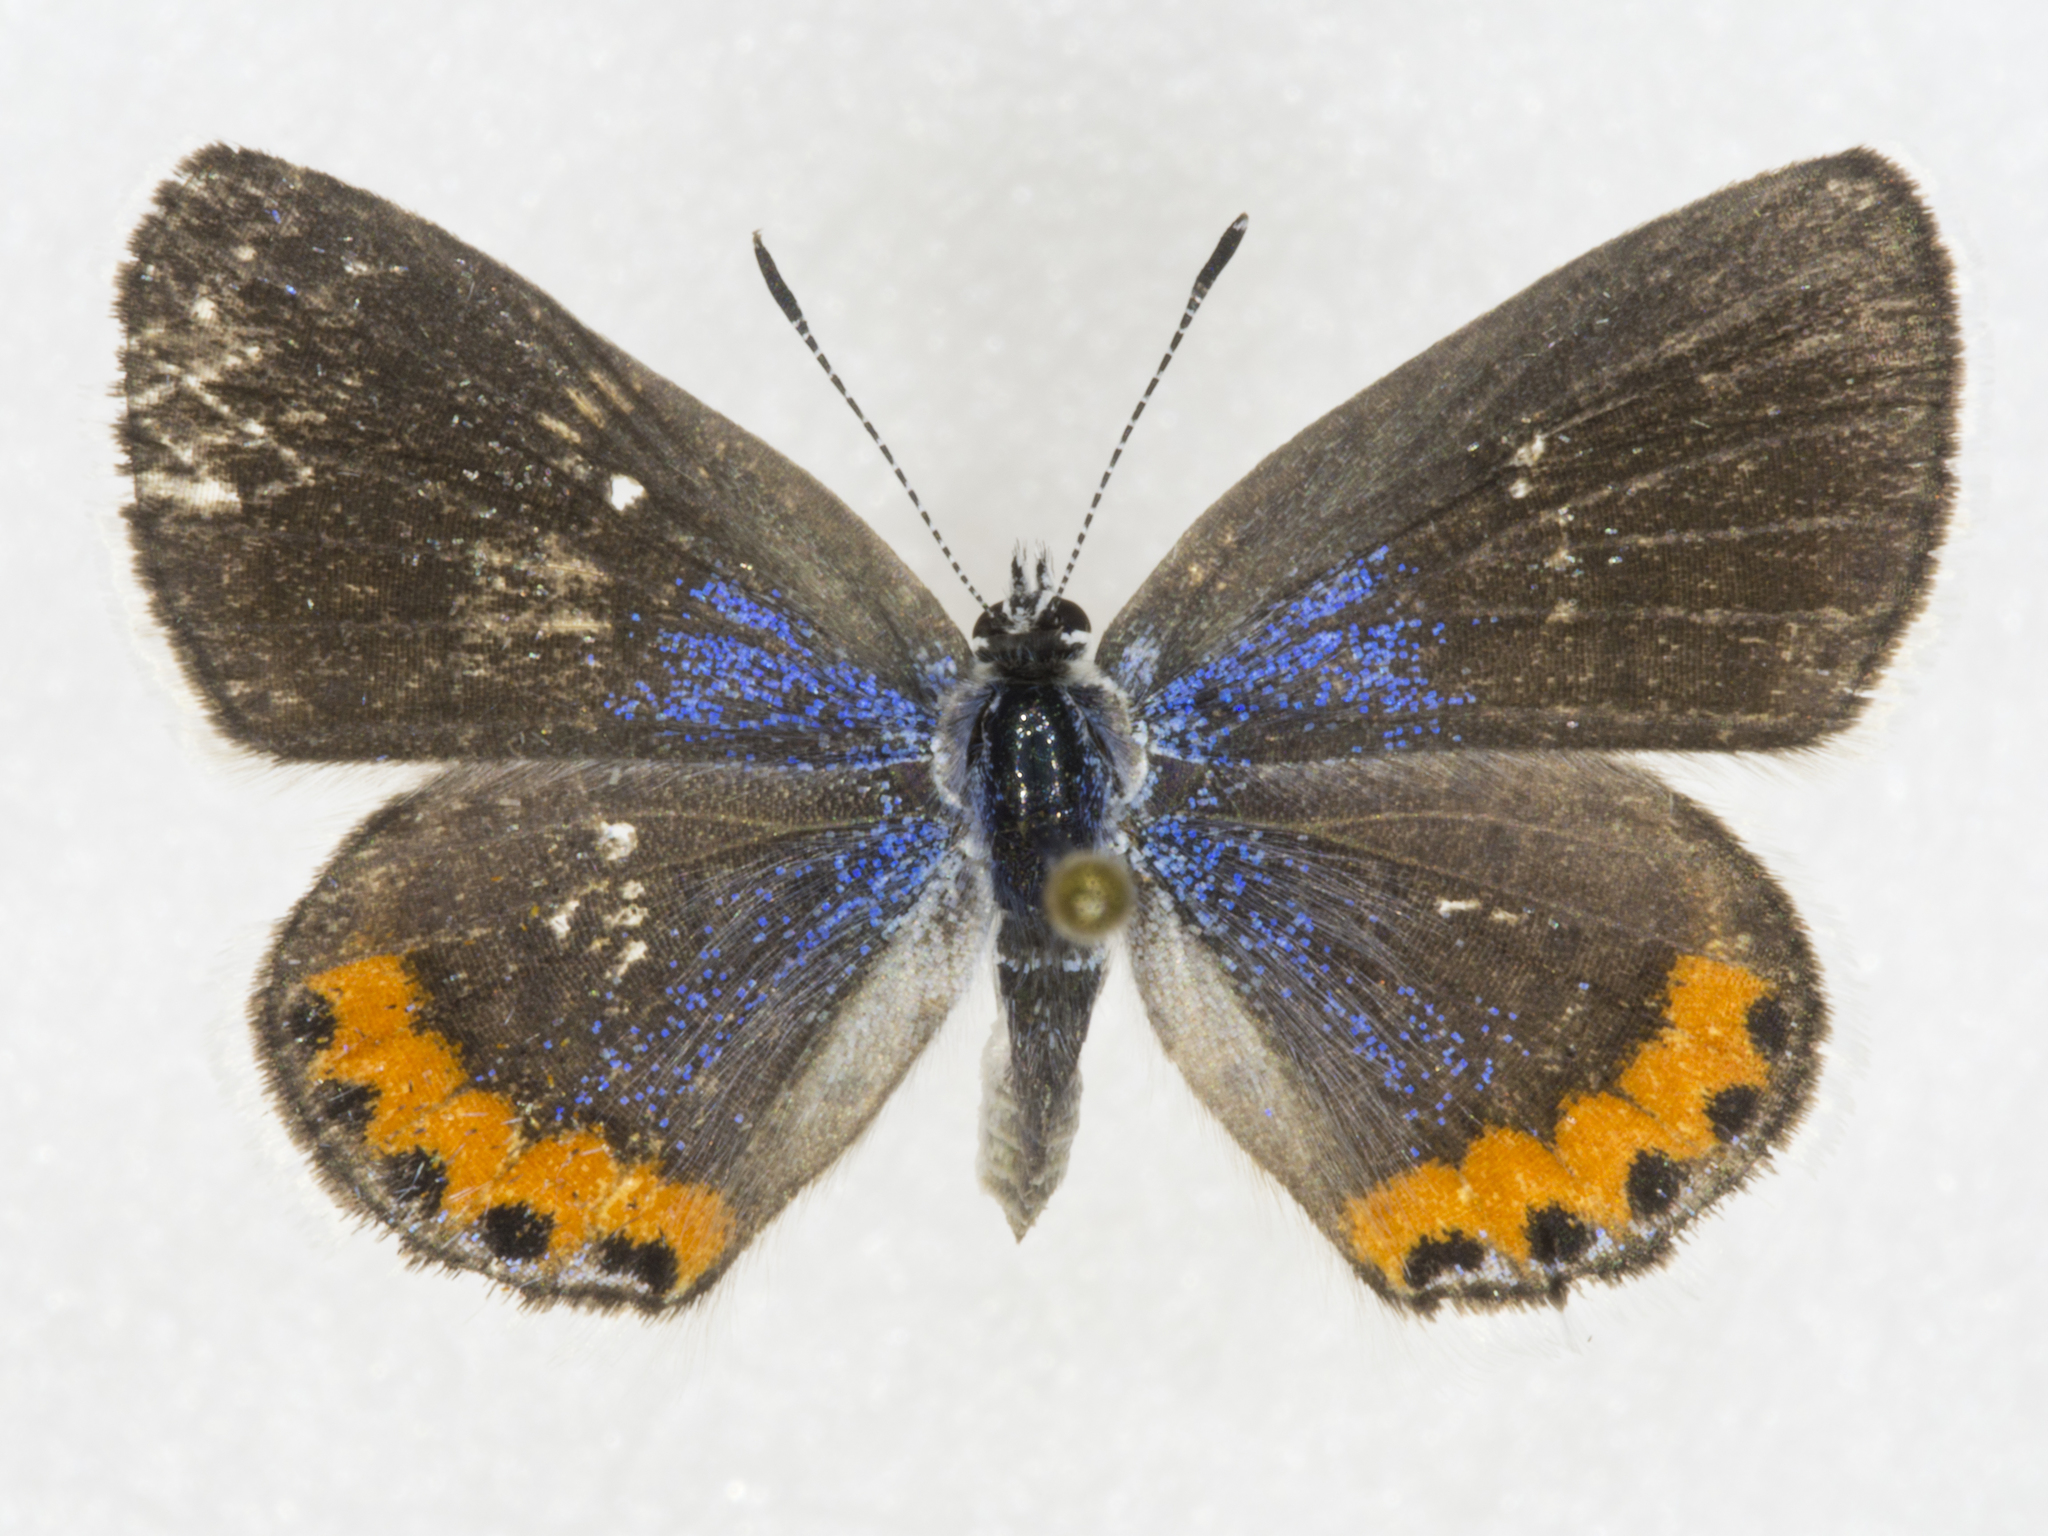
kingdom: Animalia
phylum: Arthropoda
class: Insecta
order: Lepidoptera
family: Lycaenidae
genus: Icaricia
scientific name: Icaricia lupini
